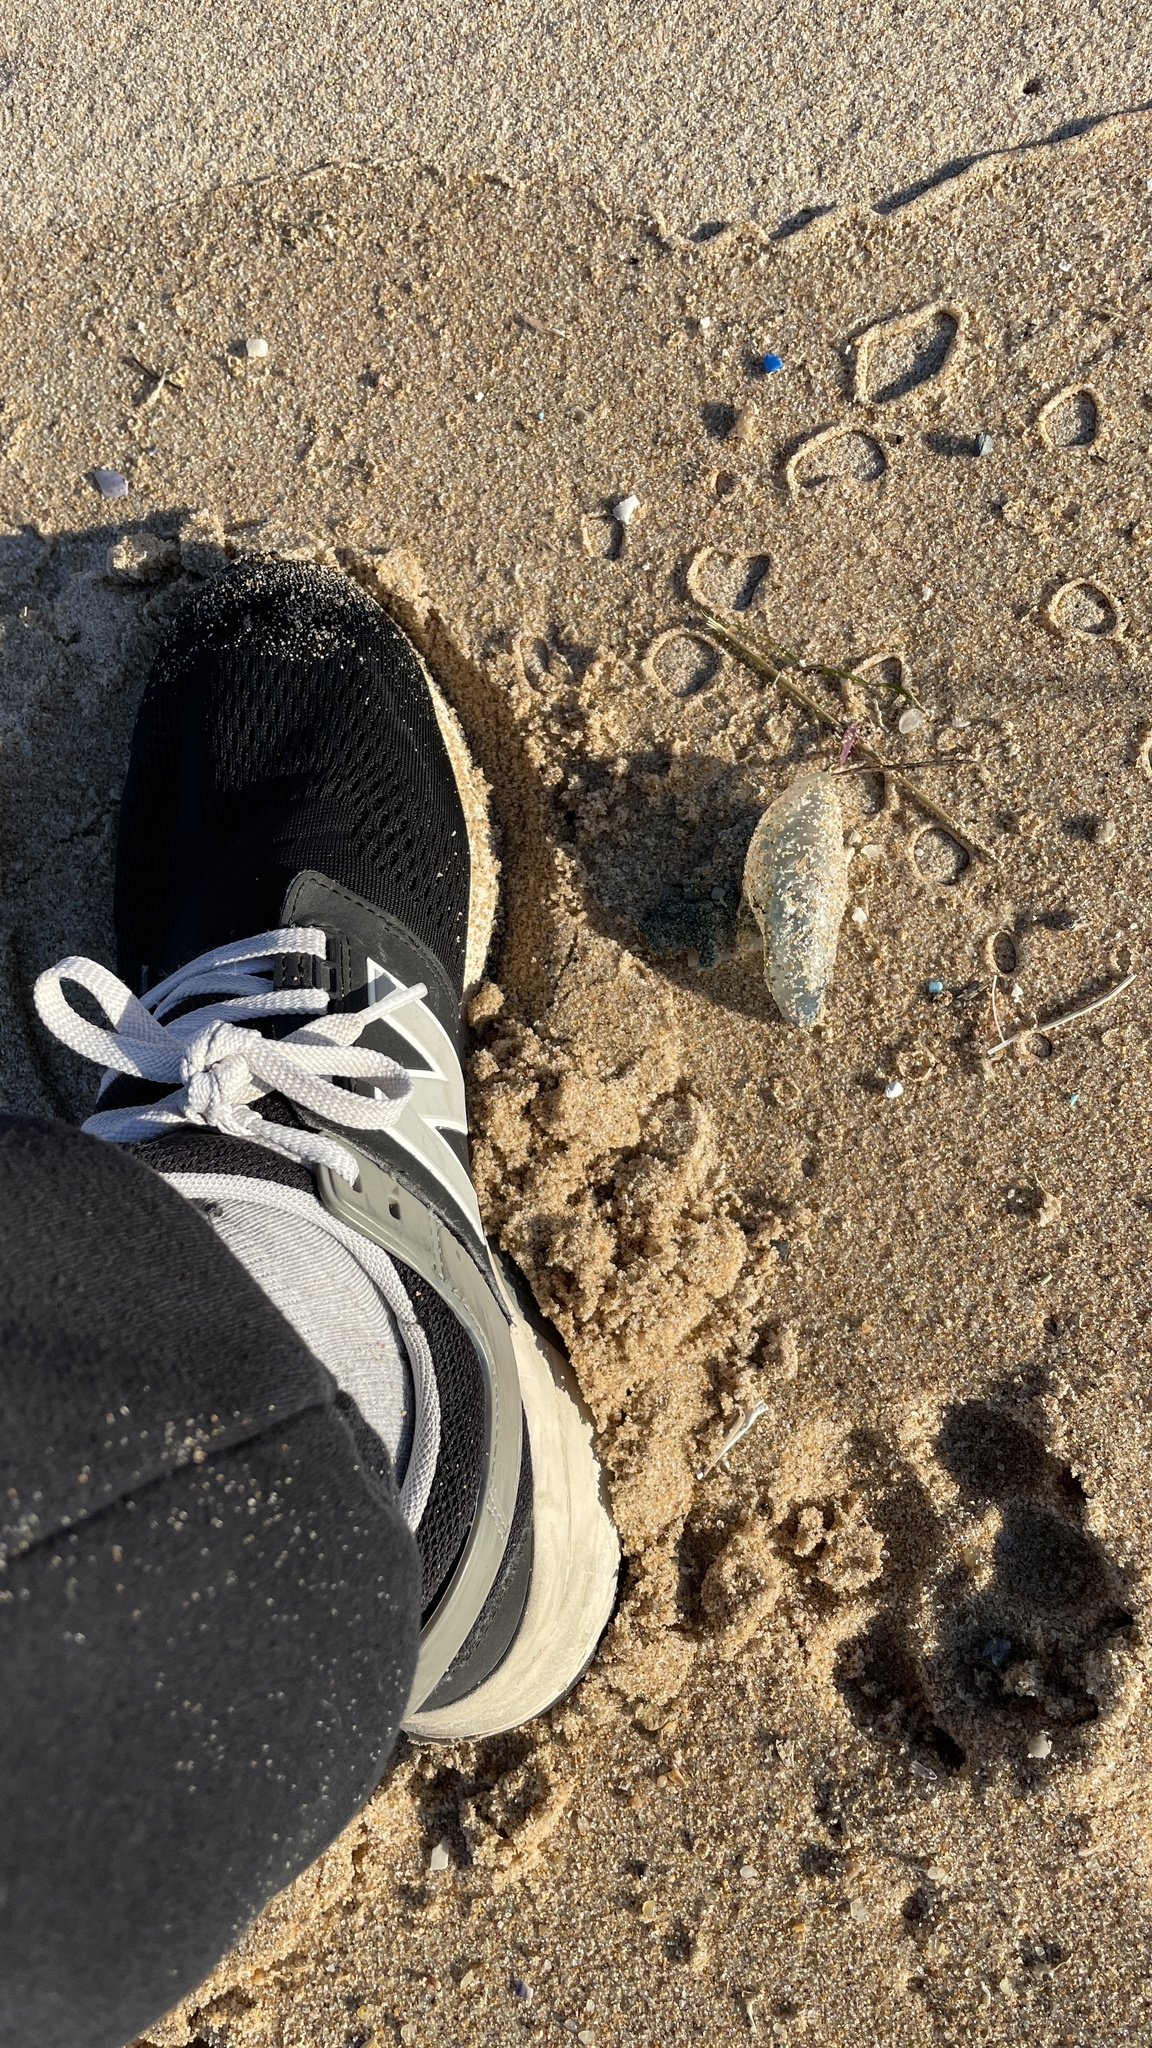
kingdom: Animalia
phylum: Cnidaria
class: Hydrozoa
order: Siphonophorae
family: Physaliidae
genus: Physalia
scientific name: Physalia physalis
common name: Portuguese man-of-war
